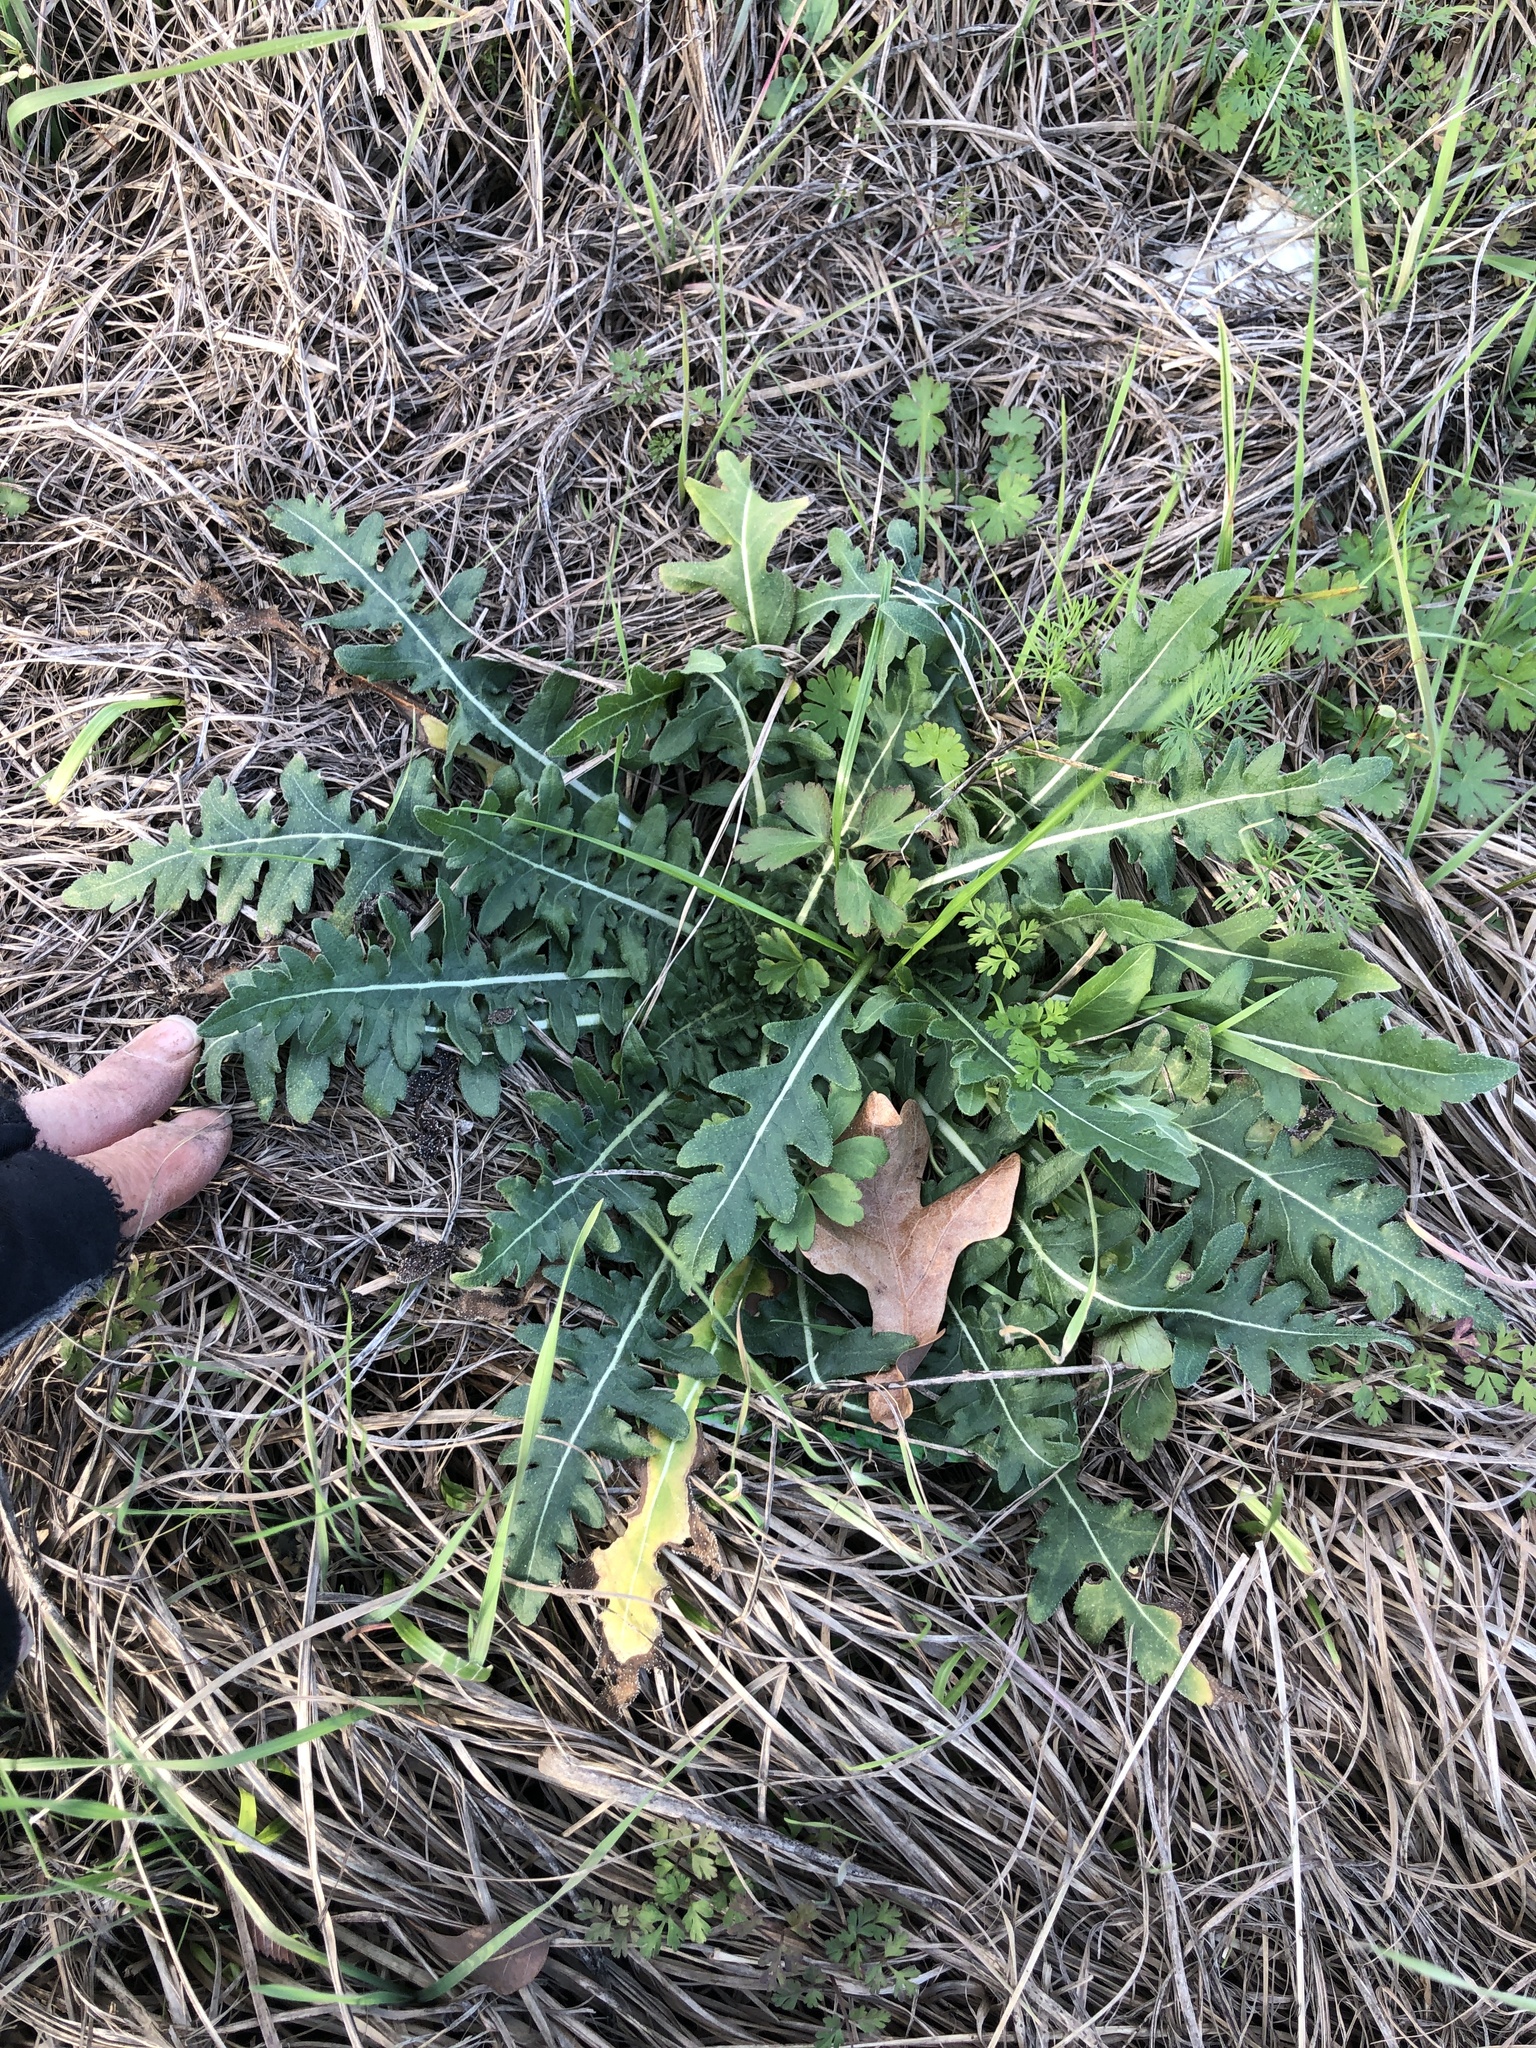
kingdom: Plantae
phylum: Tracheophyta
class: Magnoliopsida
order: Asterales
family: Asteraceae
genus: Engelmannia
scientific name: Engelmannia peristenia
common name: Engelmann's daisy
